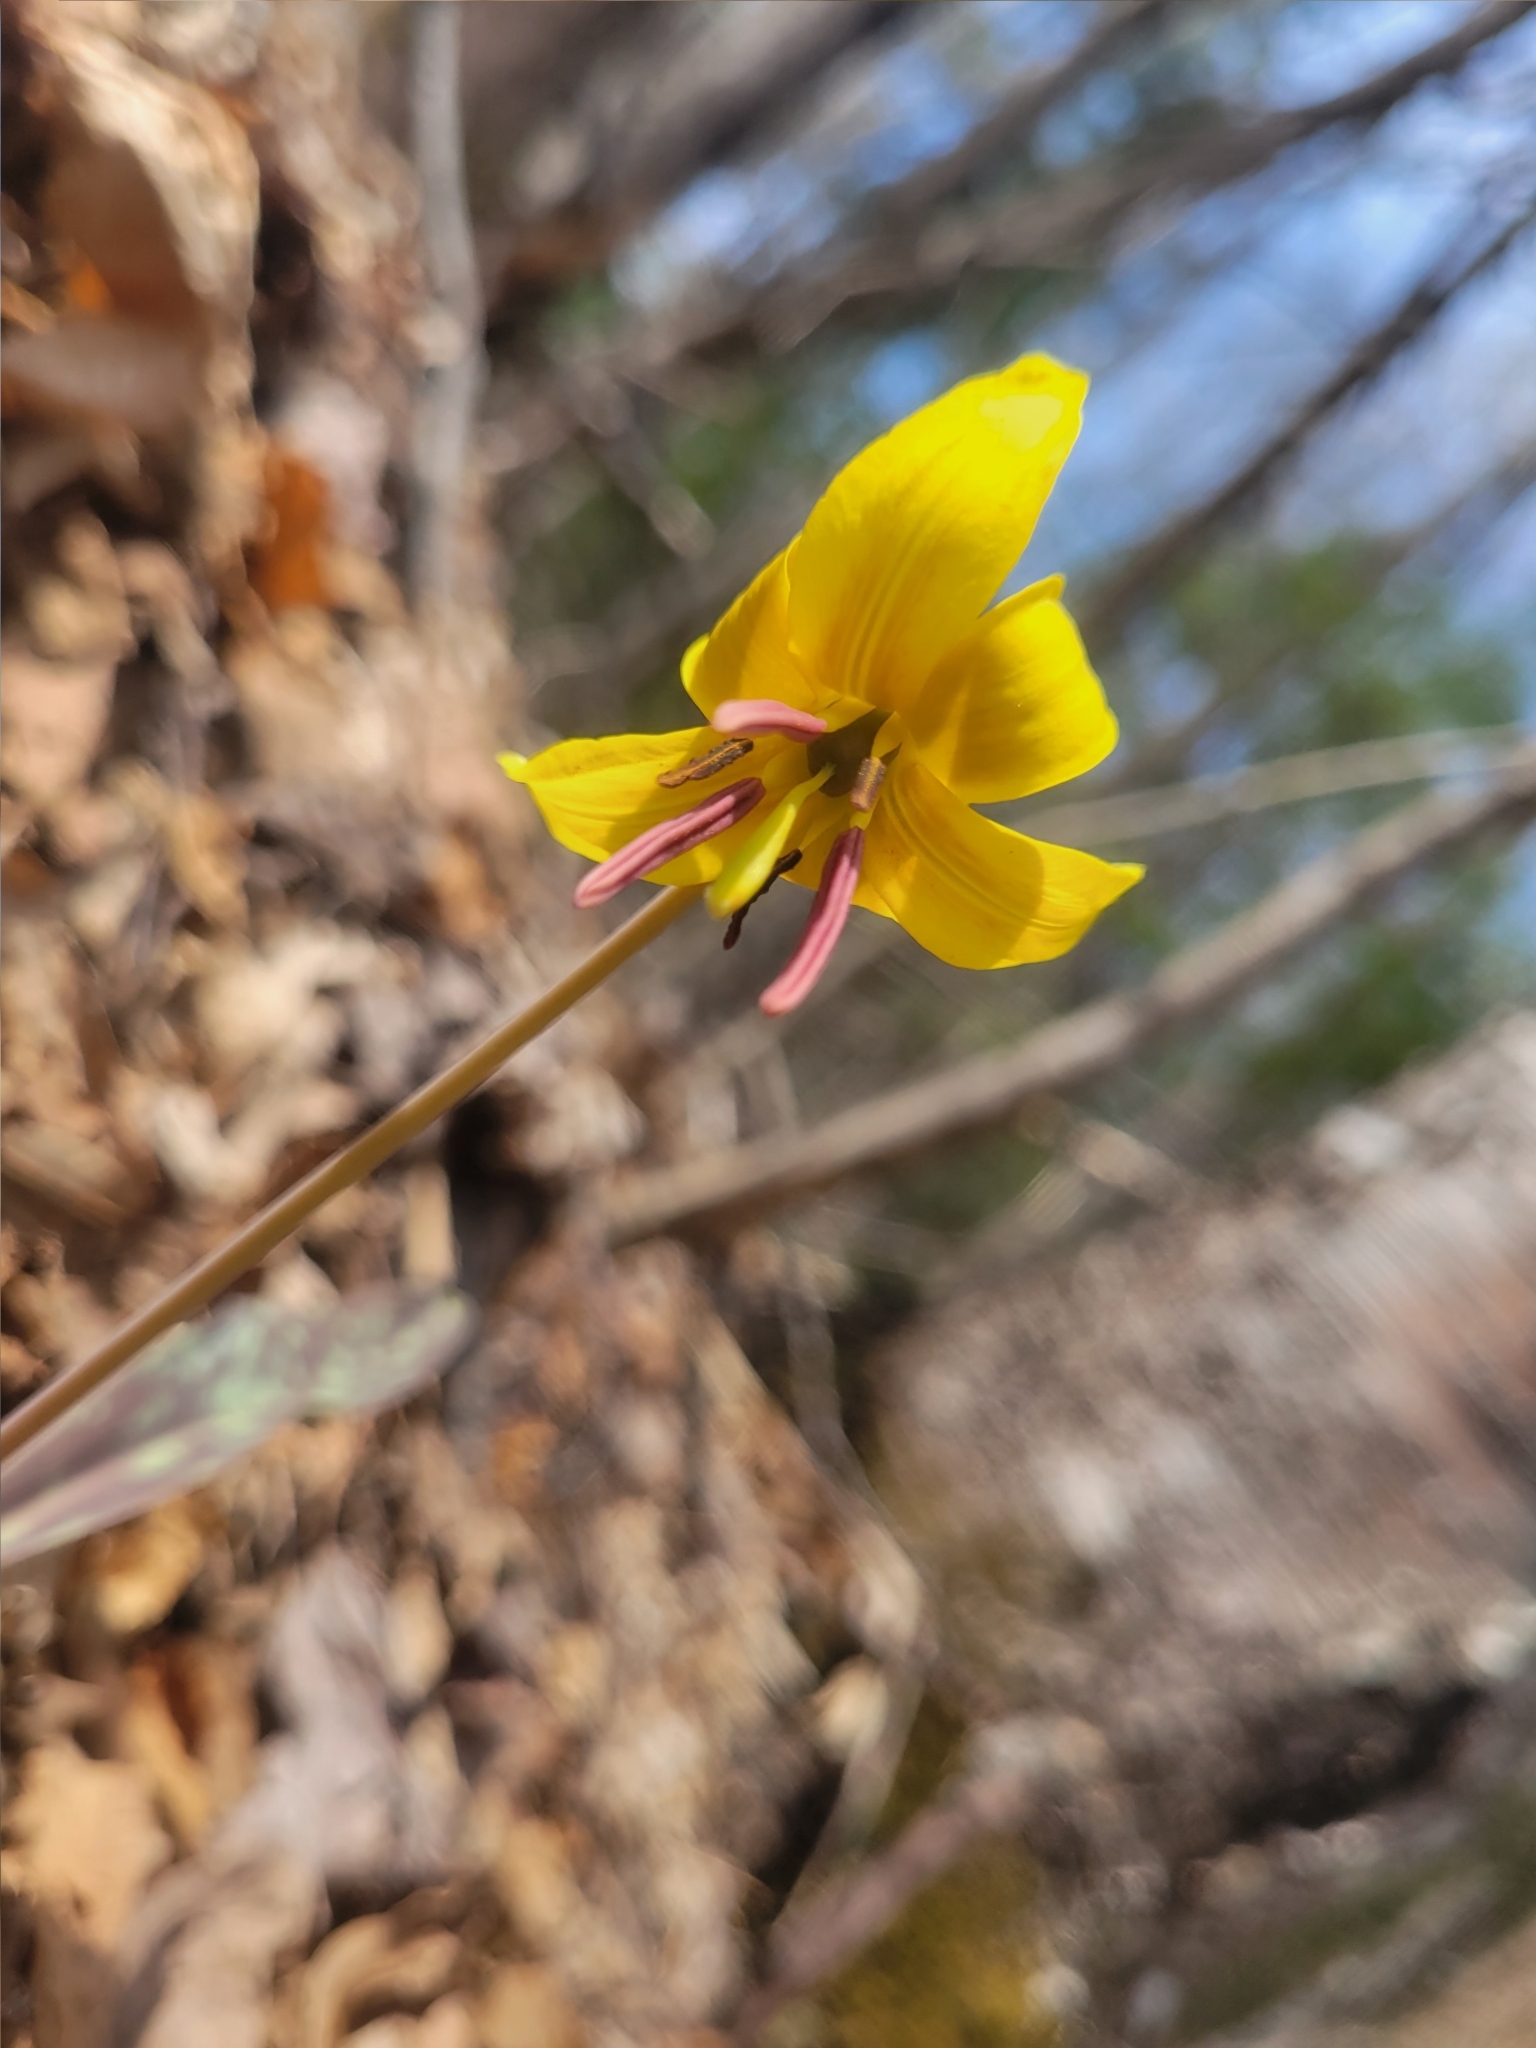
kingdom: Plantae
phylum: Tracheophyta
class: Liliopsida
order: Liliales
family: Liliaceae
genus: Erythronium
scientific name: Erythronium americanum
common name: Yellow adder's-tongue
